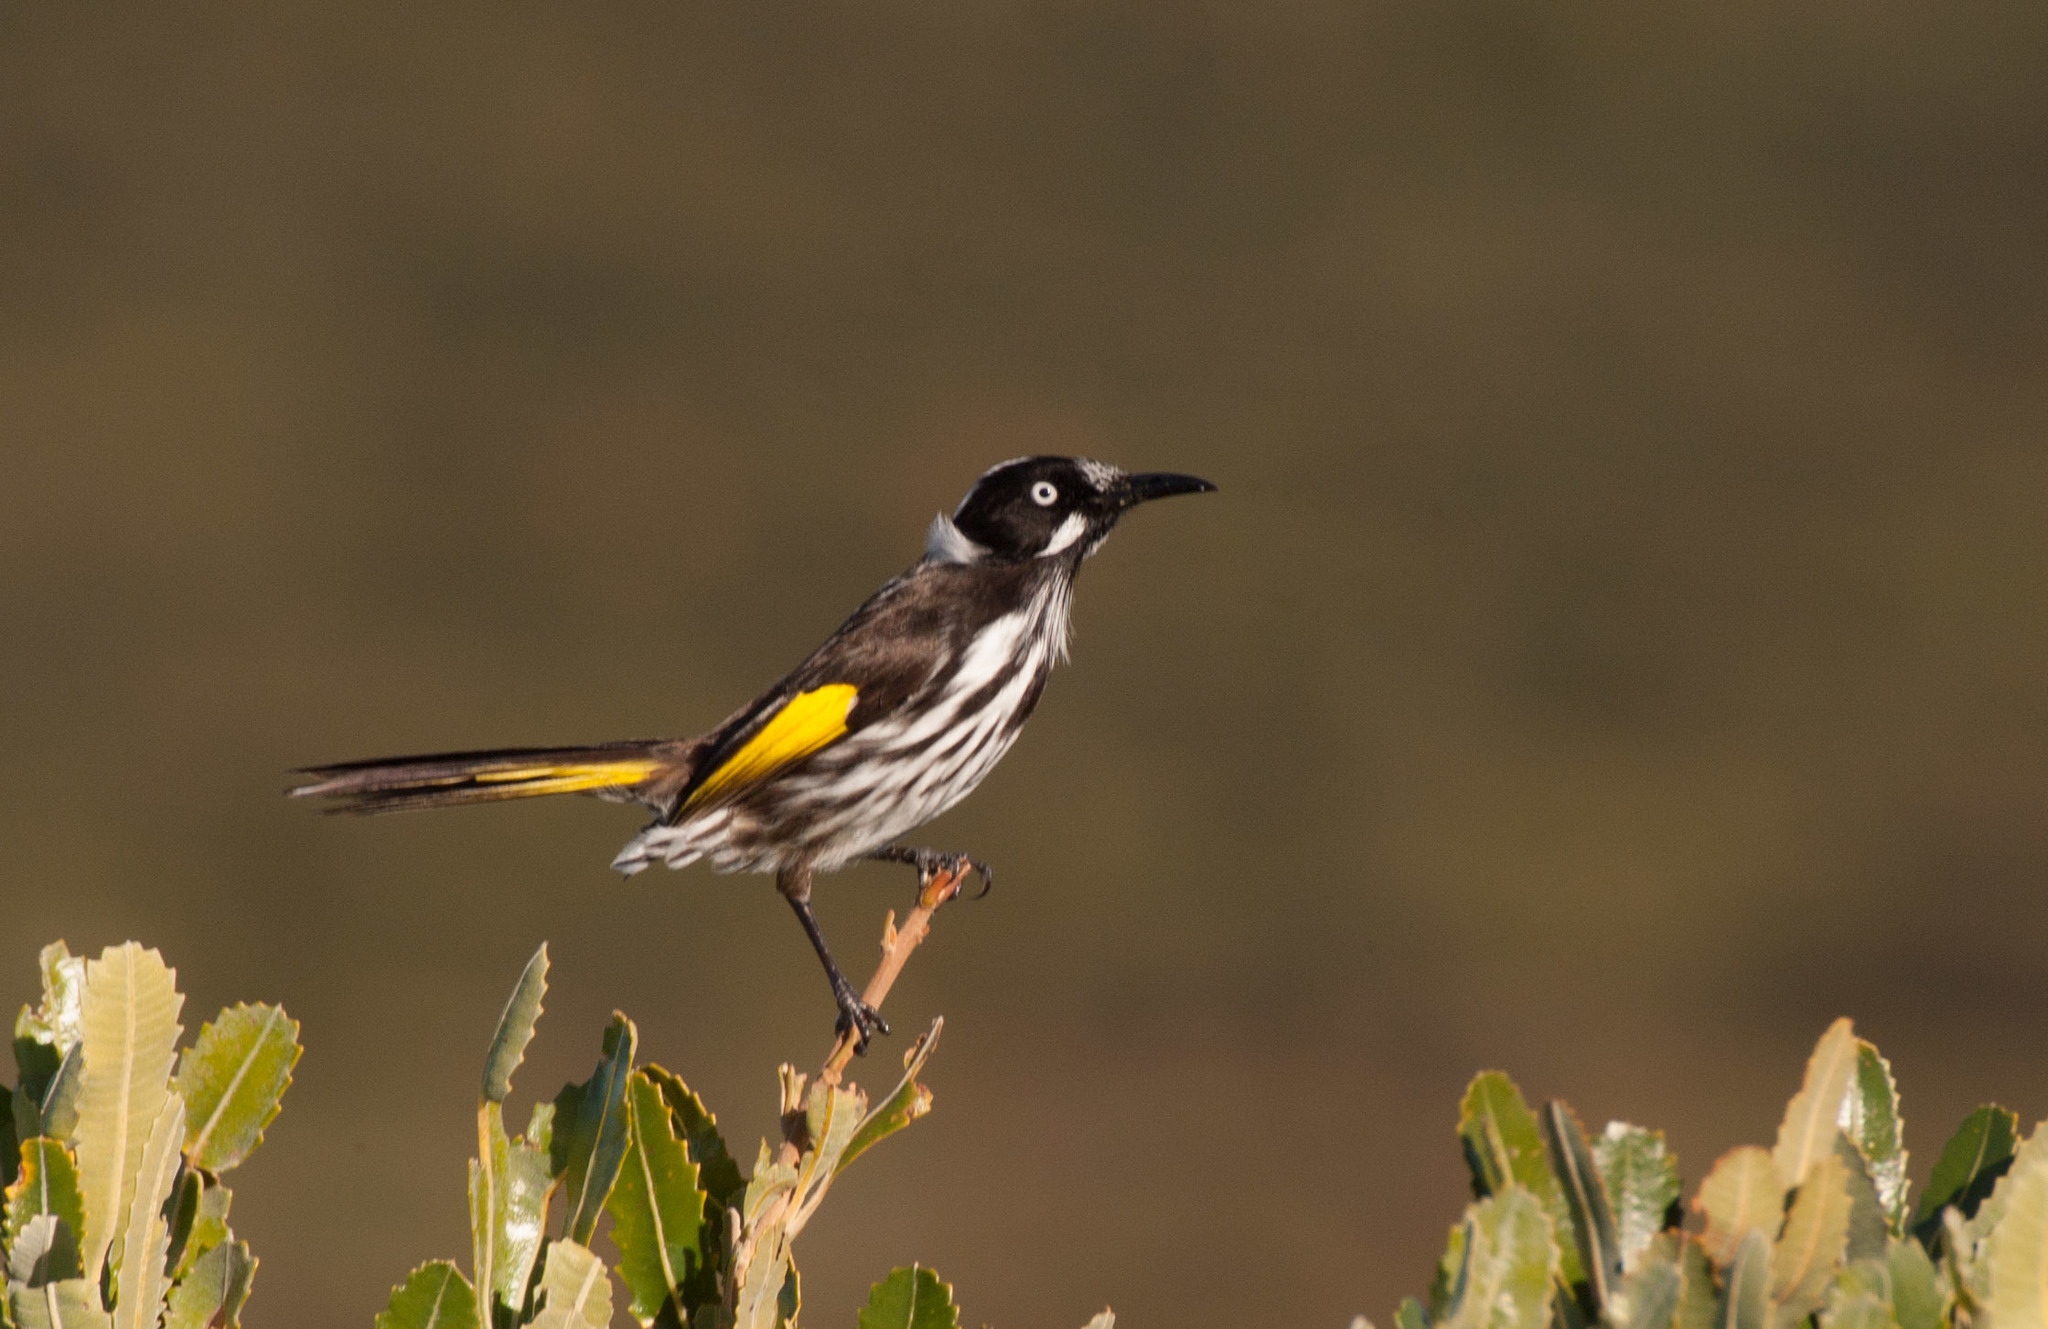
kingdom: Animalia
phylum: Chordata
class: Aves
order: Passeriformes
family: Meliphagidae
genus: Phylidonyris
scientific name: Phylidonyris novaehollandiae
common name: New holland honeyeater
